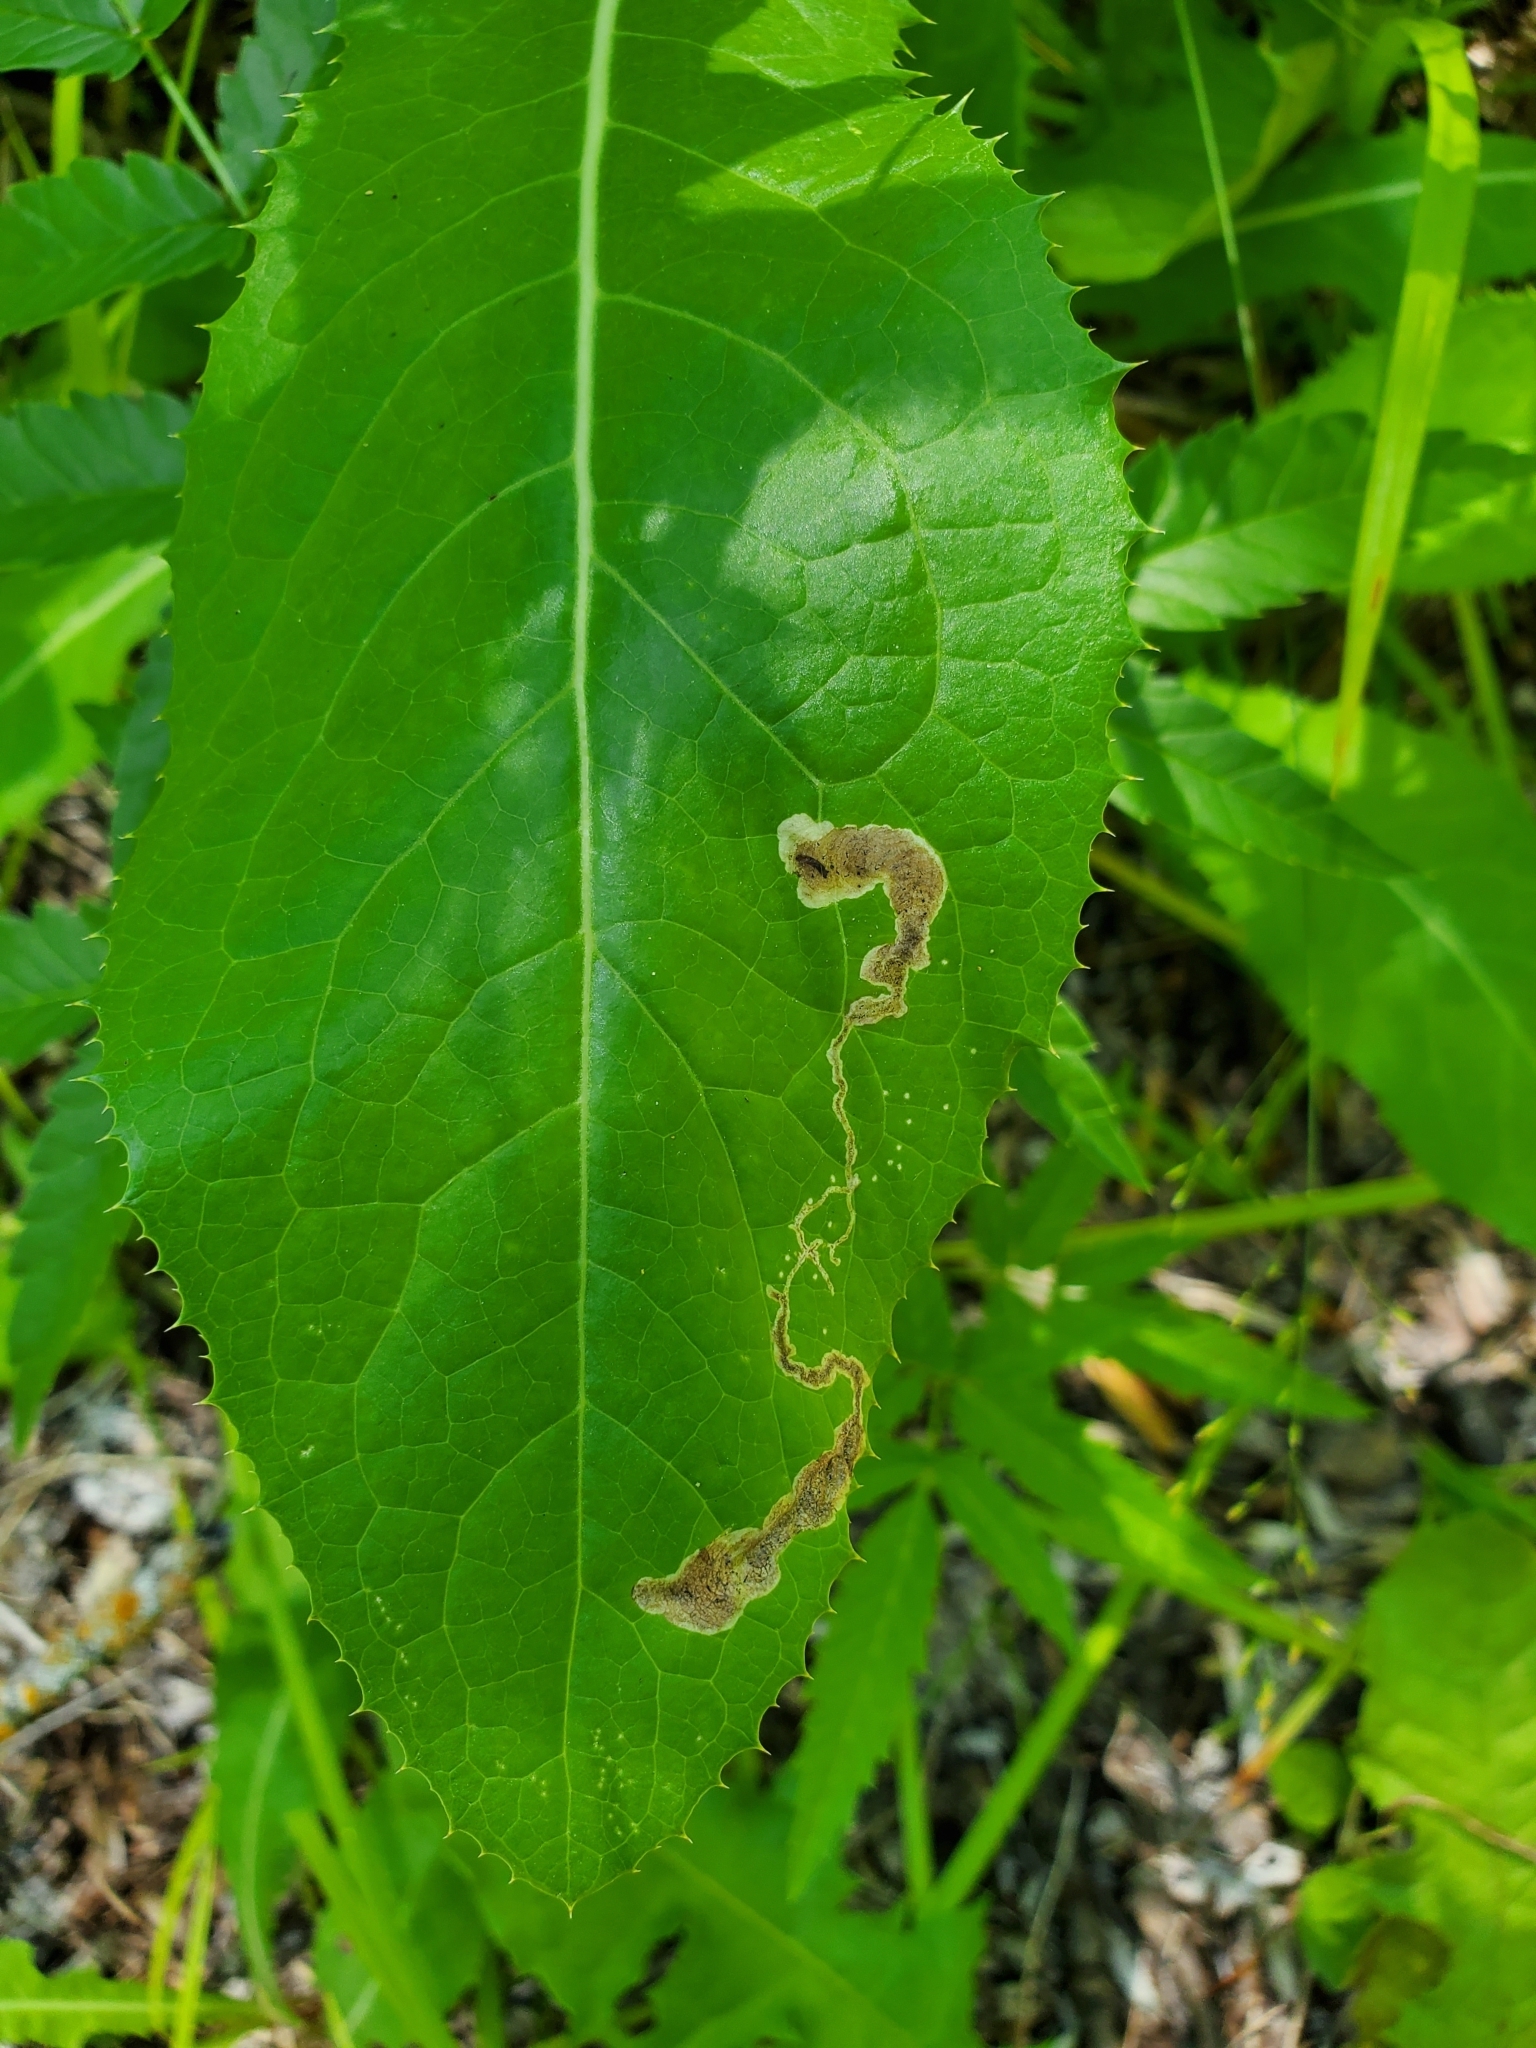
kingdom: Animalia
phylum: Arthropoda
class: Insecta
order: Diptera
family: Agromyzidae
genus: Liriomyza
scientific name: Liriomyza taraxaci
